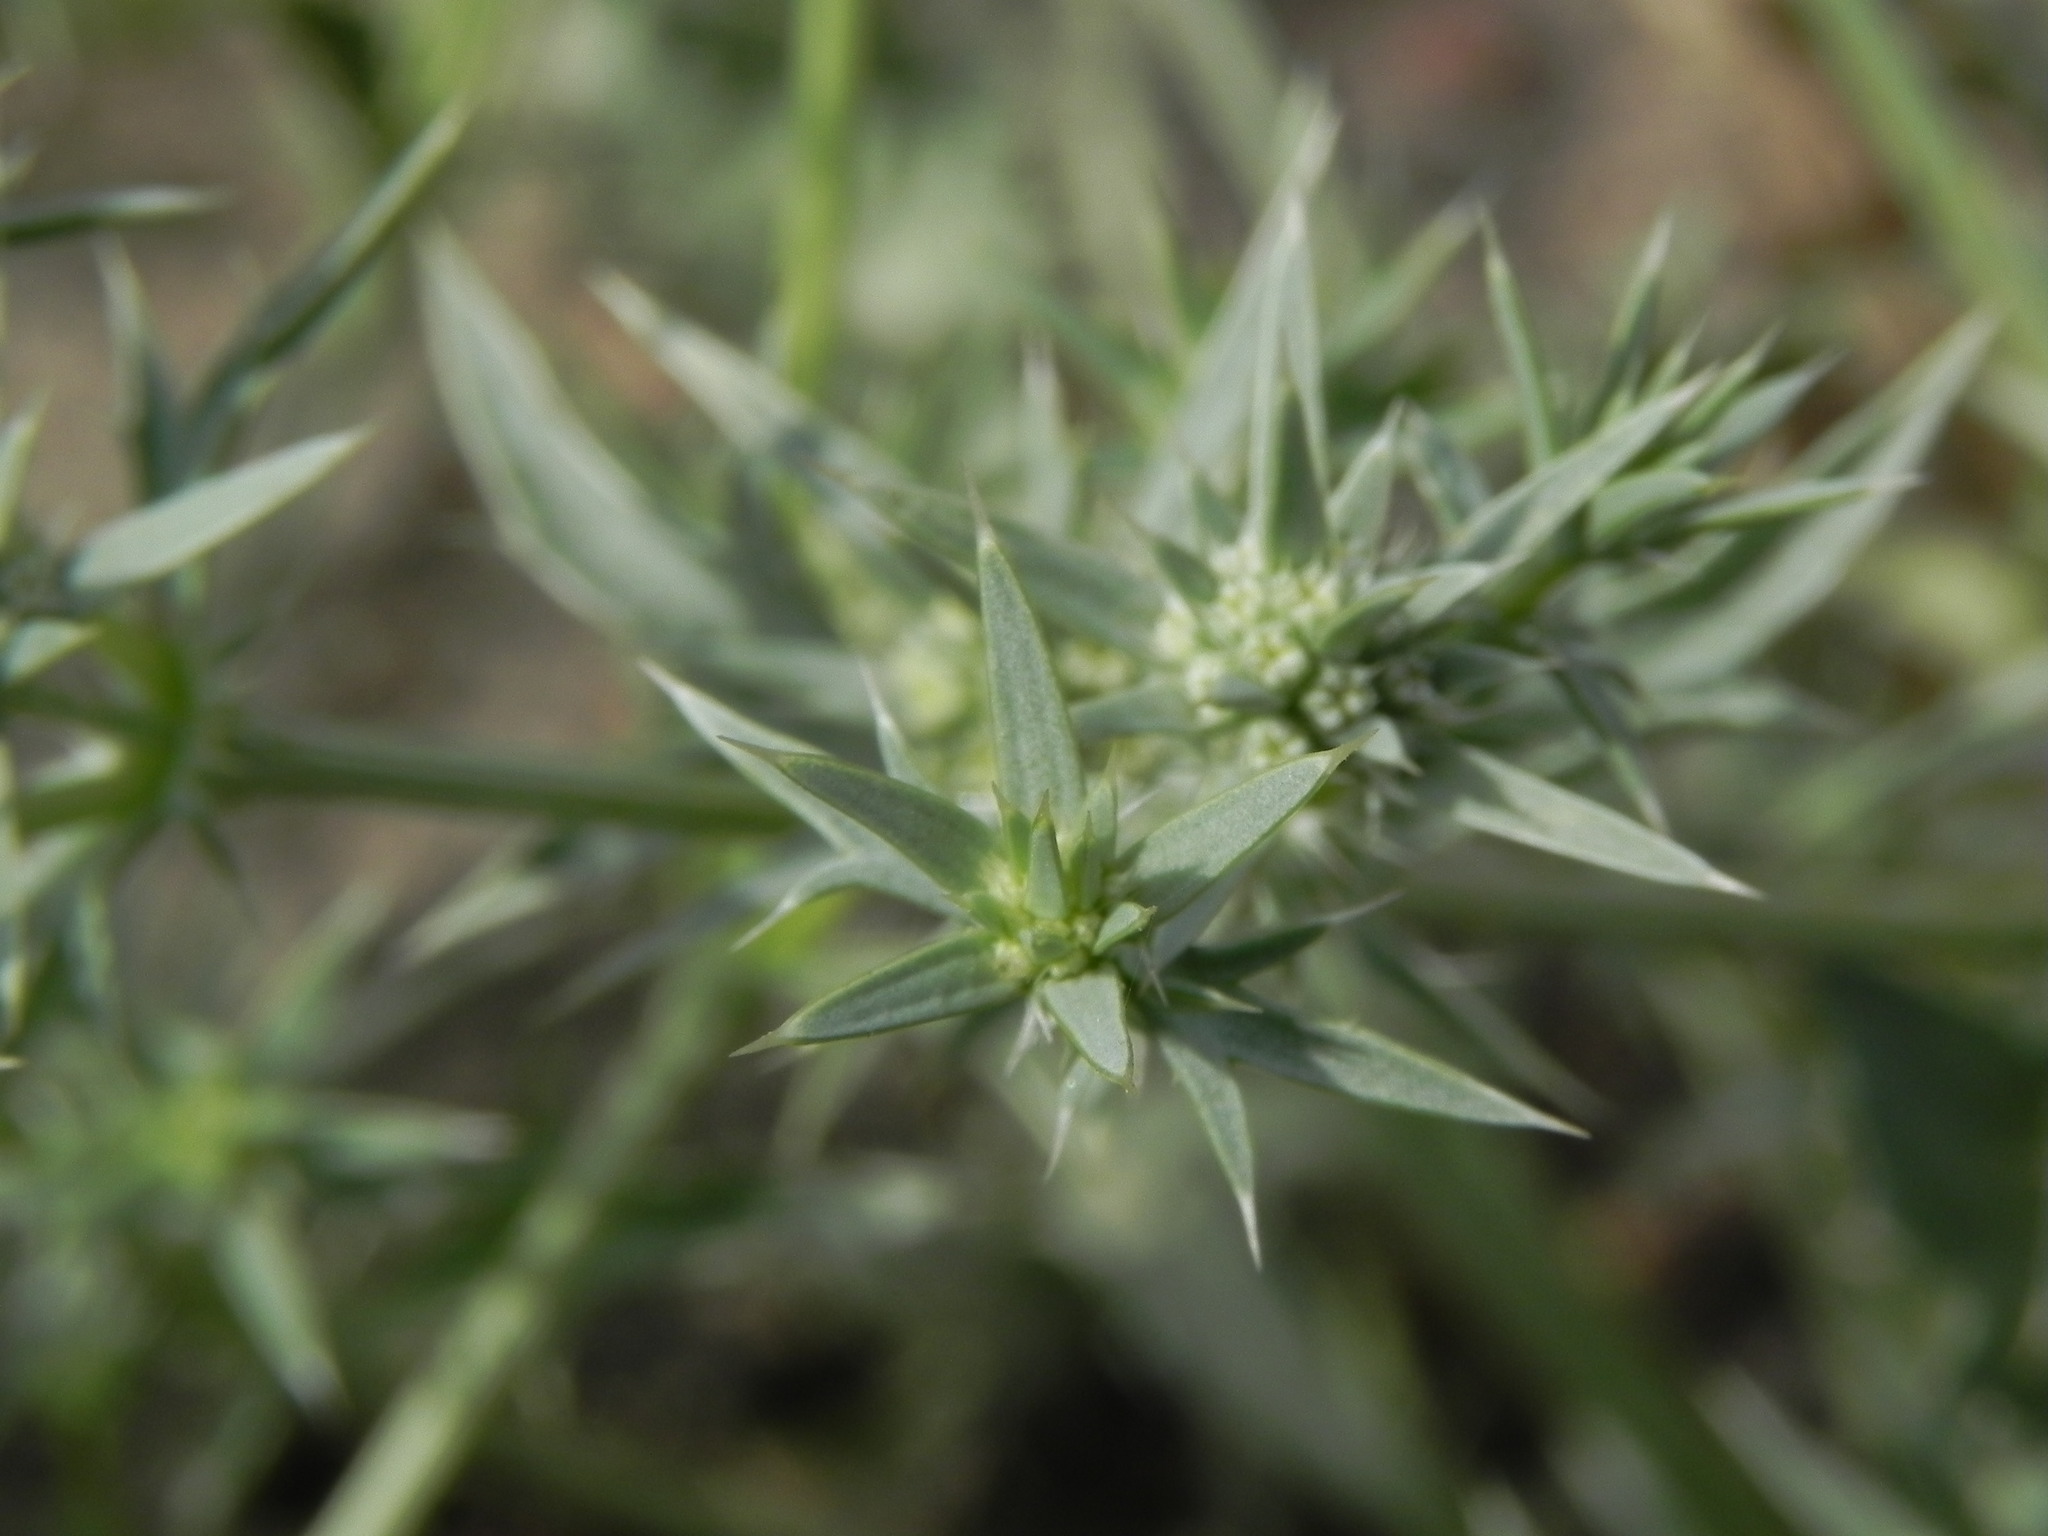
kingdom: Plantae
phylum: Tracheophyta
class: Magnoliopsida
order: Apiales
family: Apiaceae
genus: Eryngium
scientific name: Eryngium aristulatum
